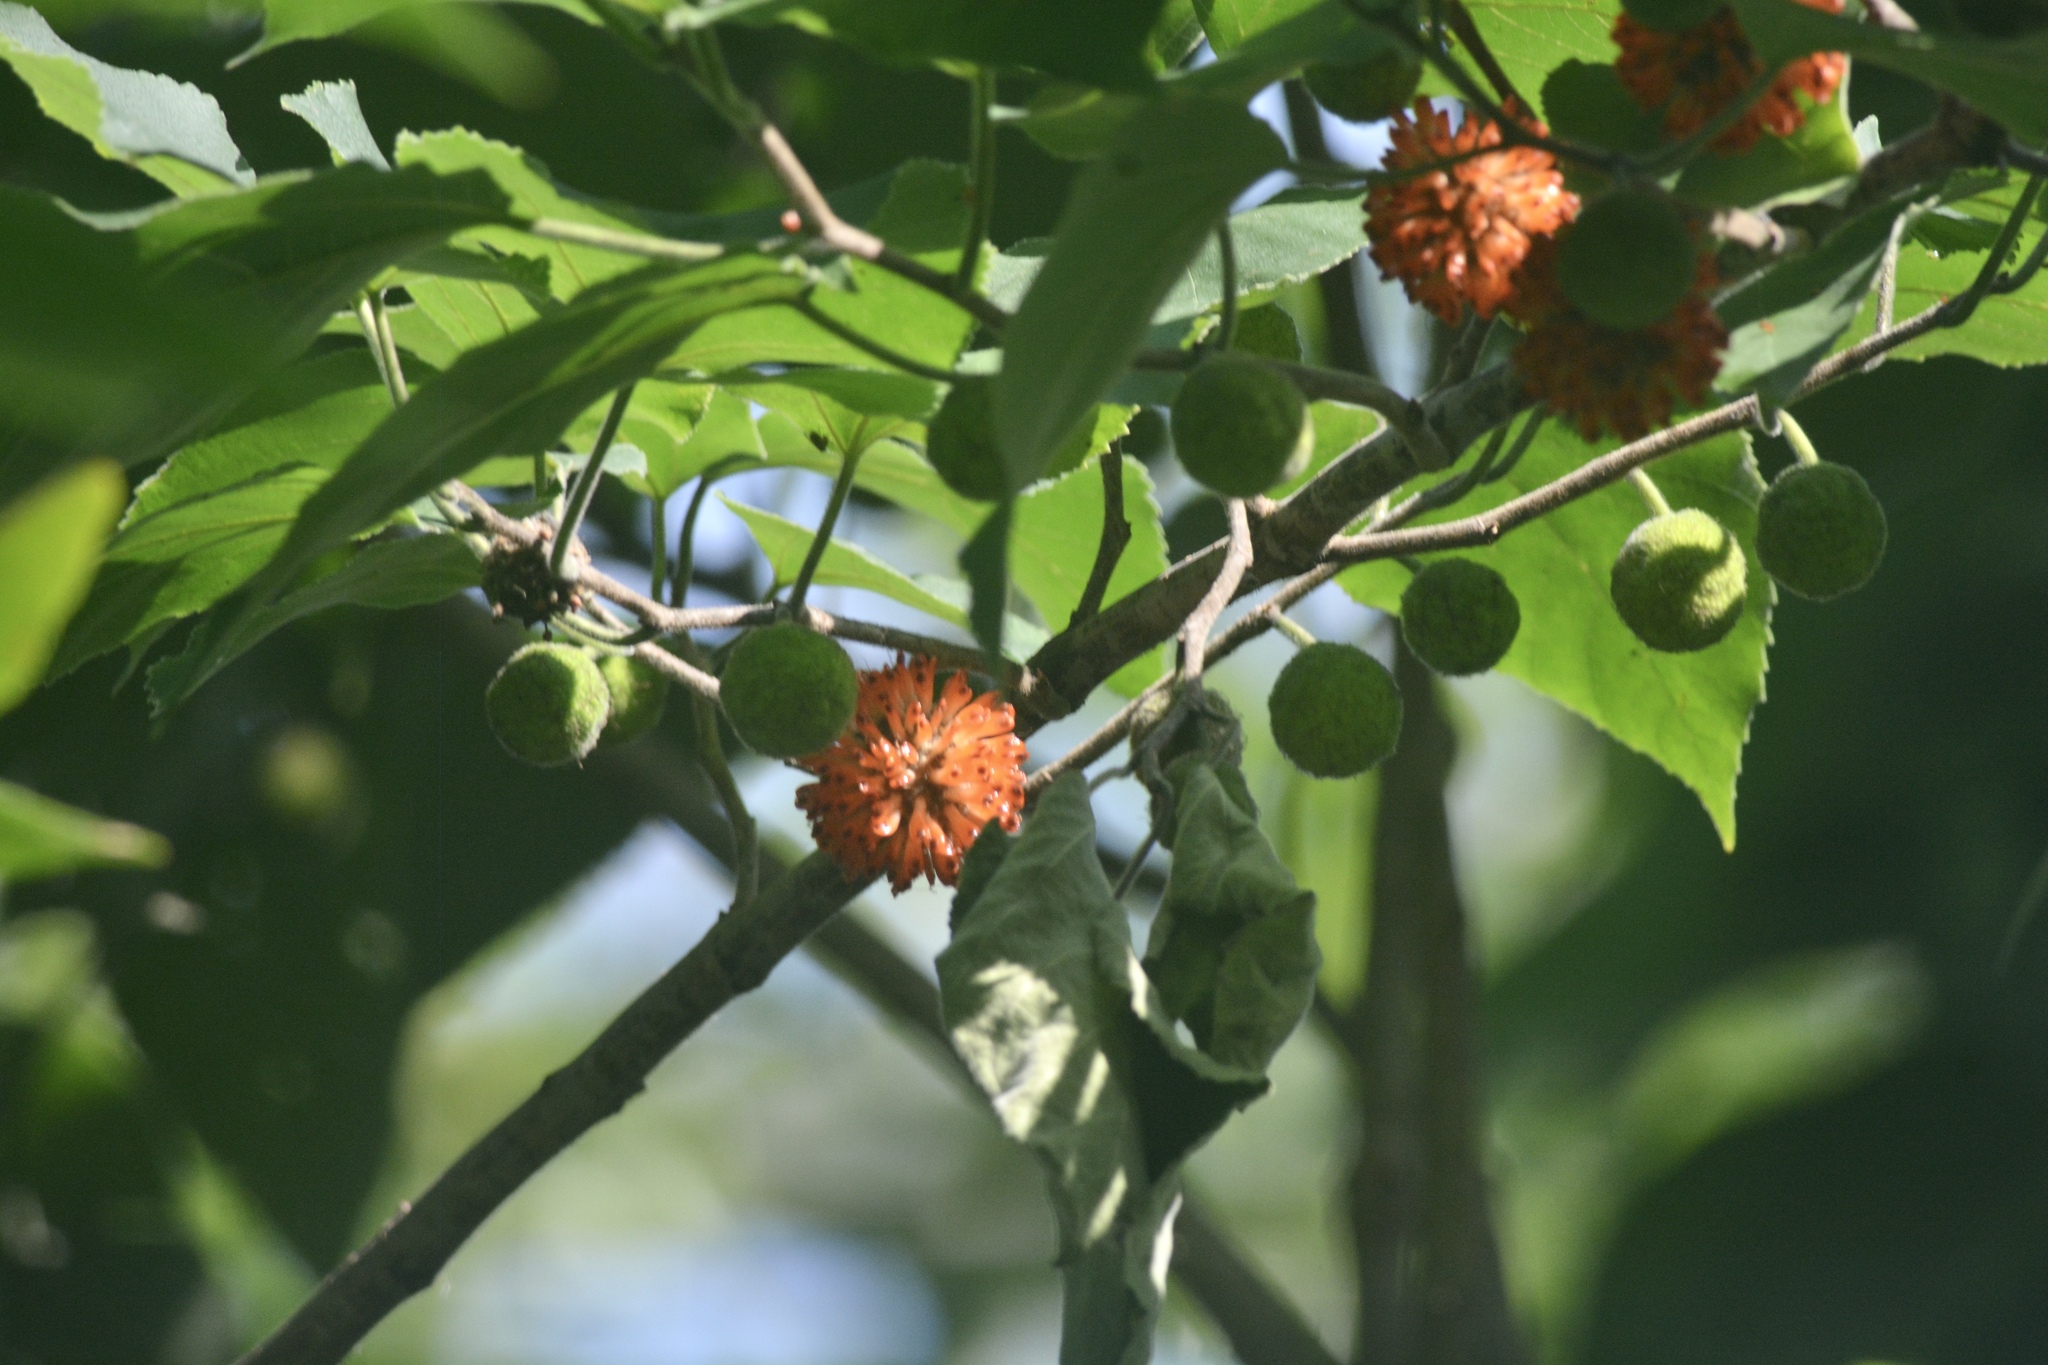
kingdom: Plantae
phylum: Tracheophyta
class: Magnoliopsida
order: Rosales
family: Moraceae
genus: Broussonetia
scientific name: Broussonetia papyrifera
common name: Paper mulberry
